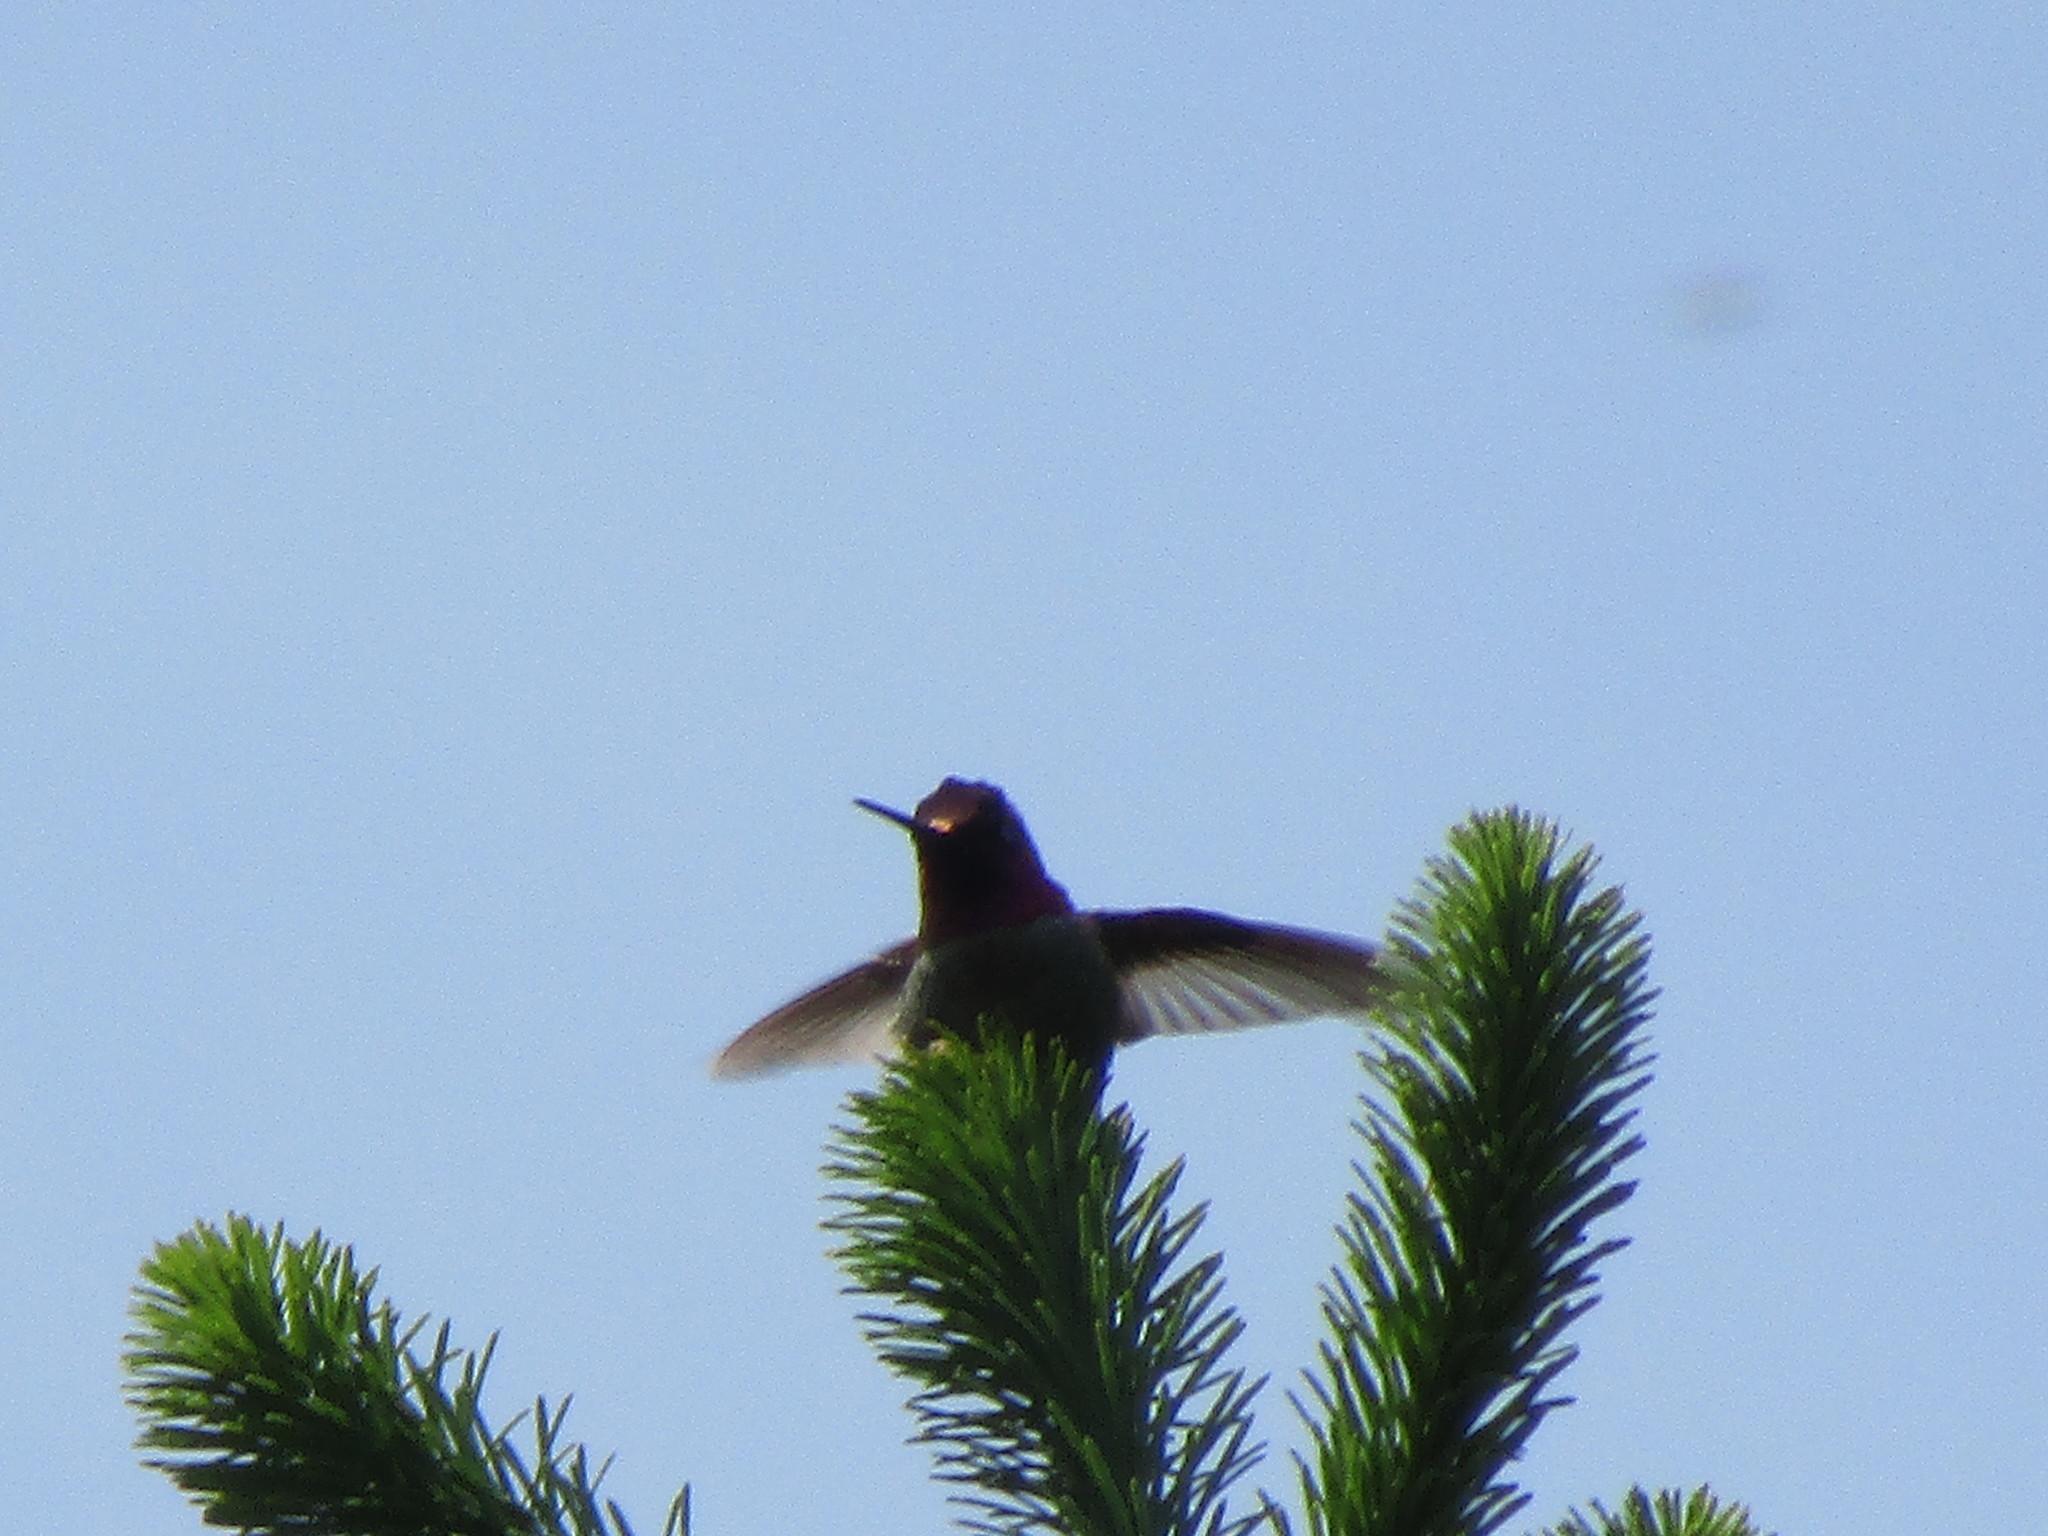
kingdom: Animalia
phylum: Chordata
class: Aves
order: Apodiformes
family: Trochilidae
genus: Calypte
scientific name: Calypte anna
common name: Anna's hummingbird
